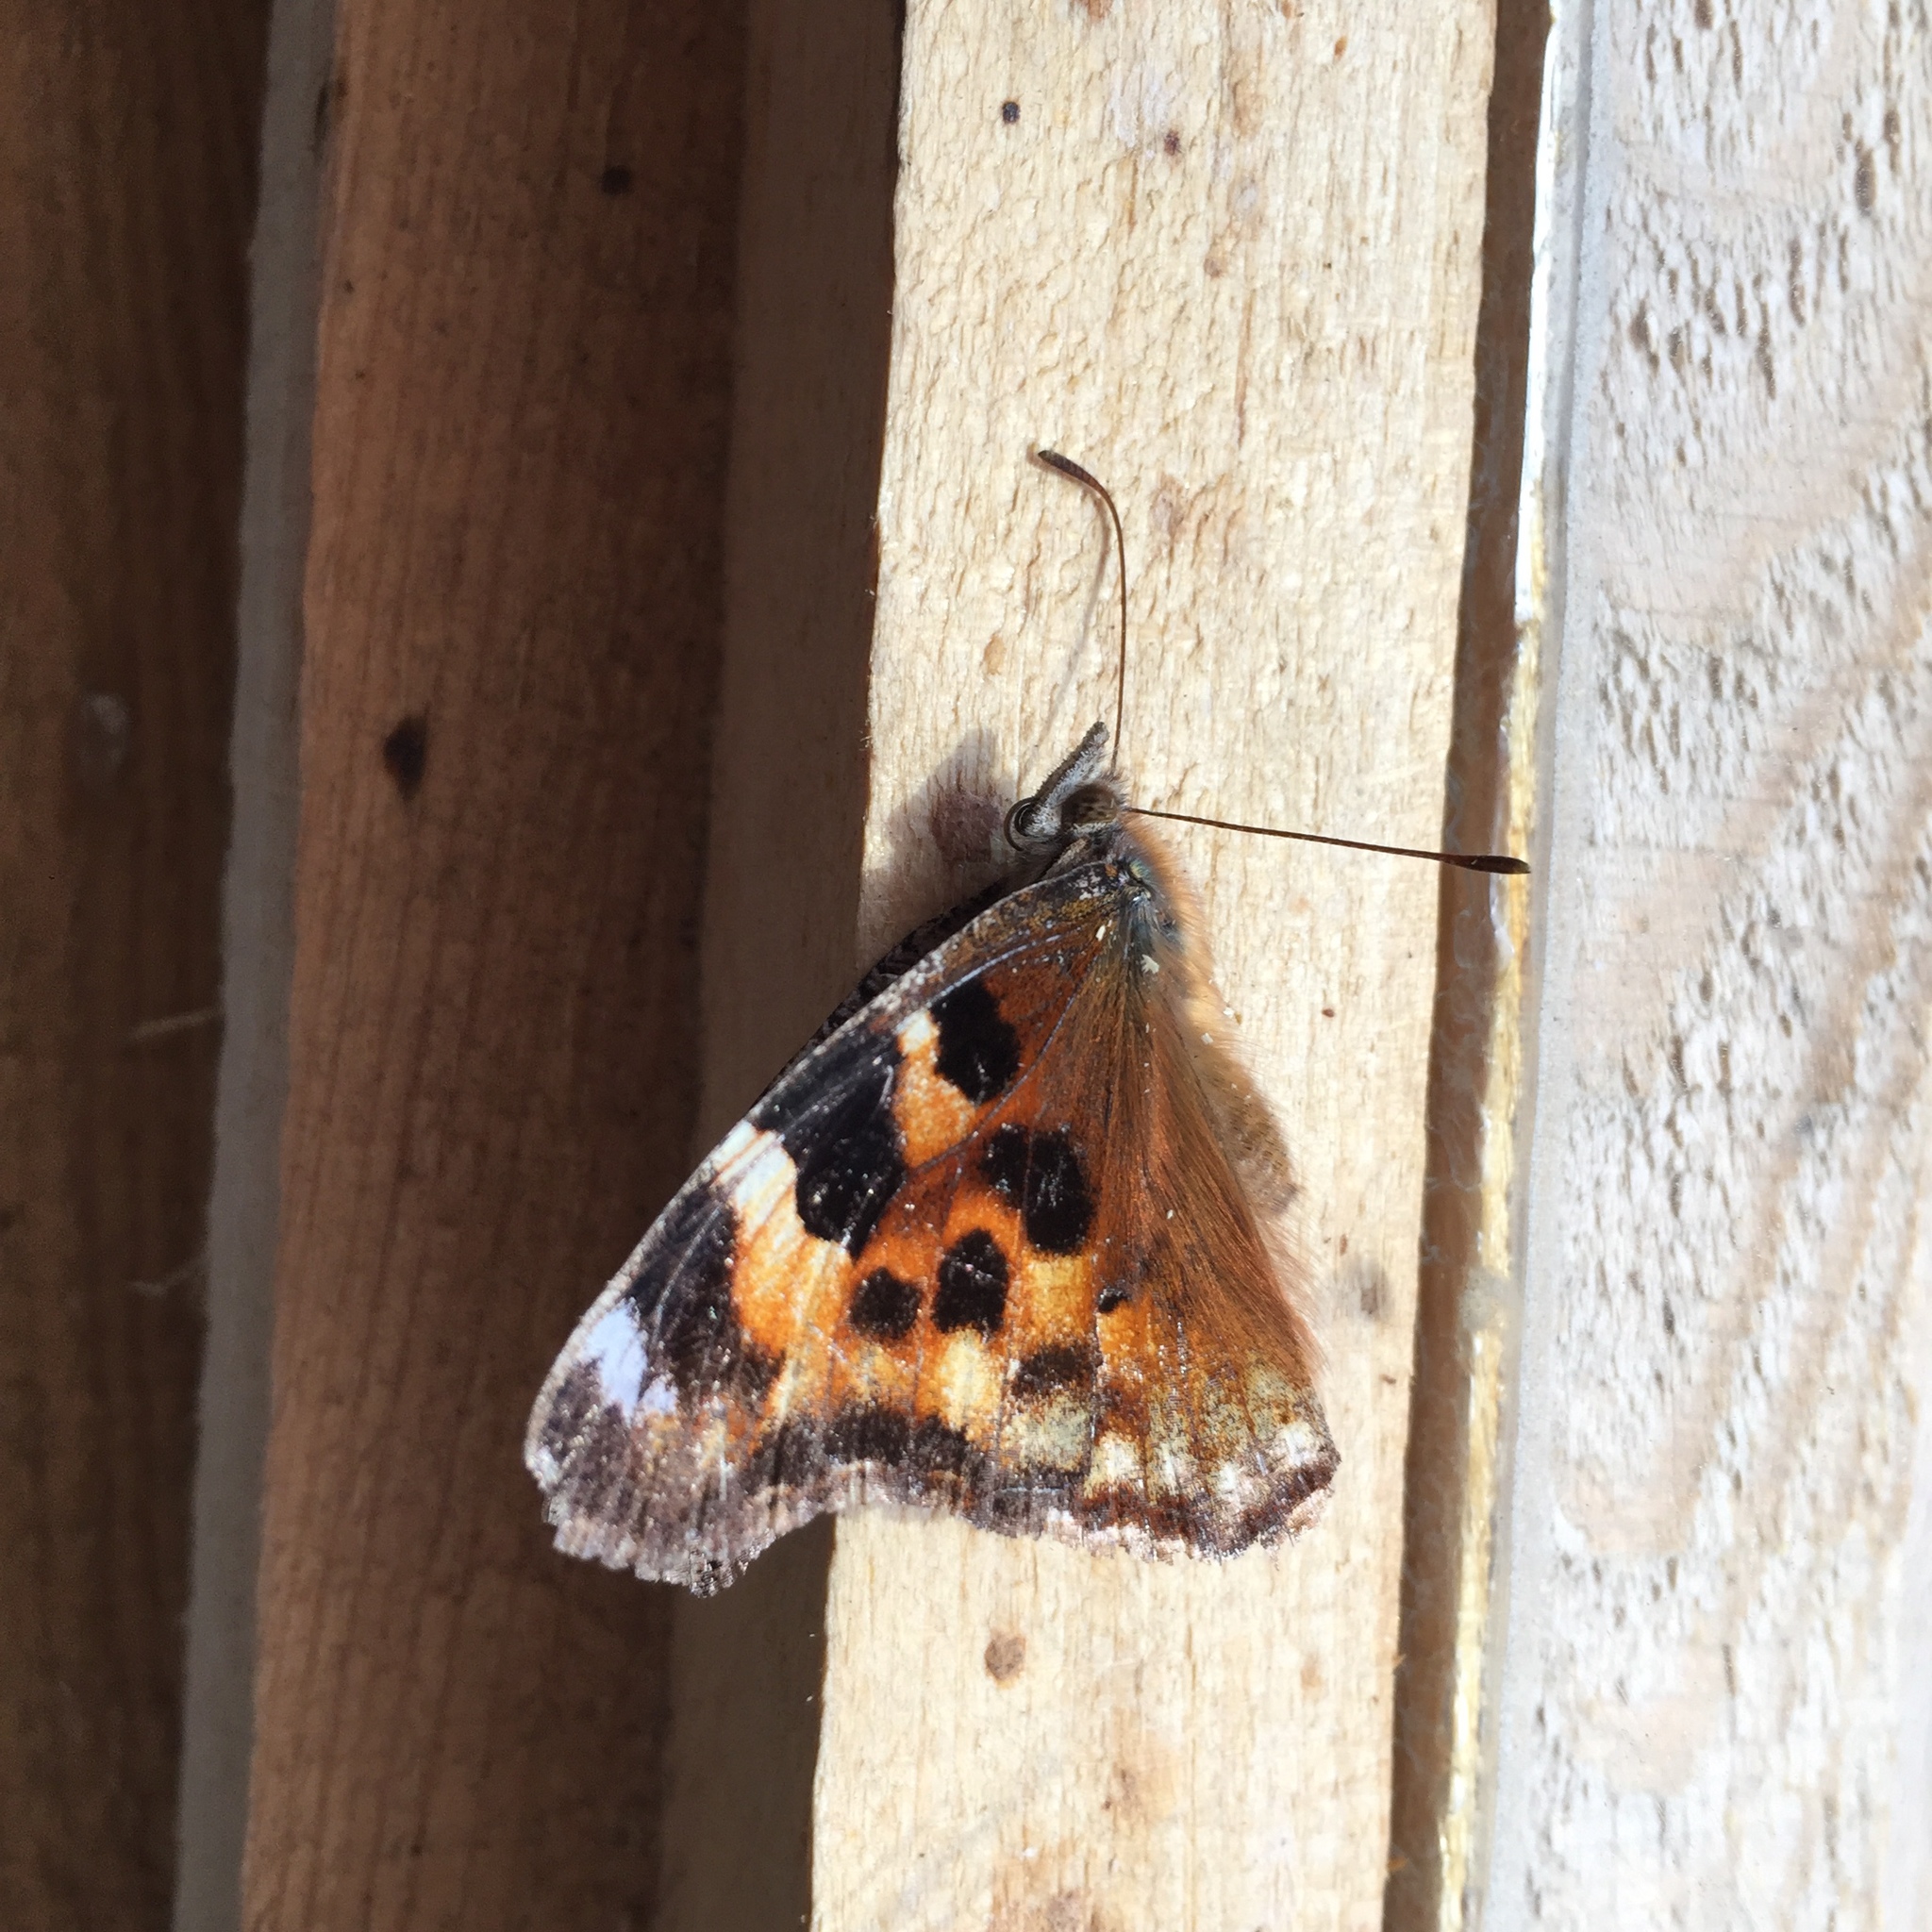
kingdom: Animalia
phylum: Arthropoda
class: Insecta
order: Lepidoptera
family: Nymphalidae
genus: Polygonia
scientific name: Polygonia vaualbum
